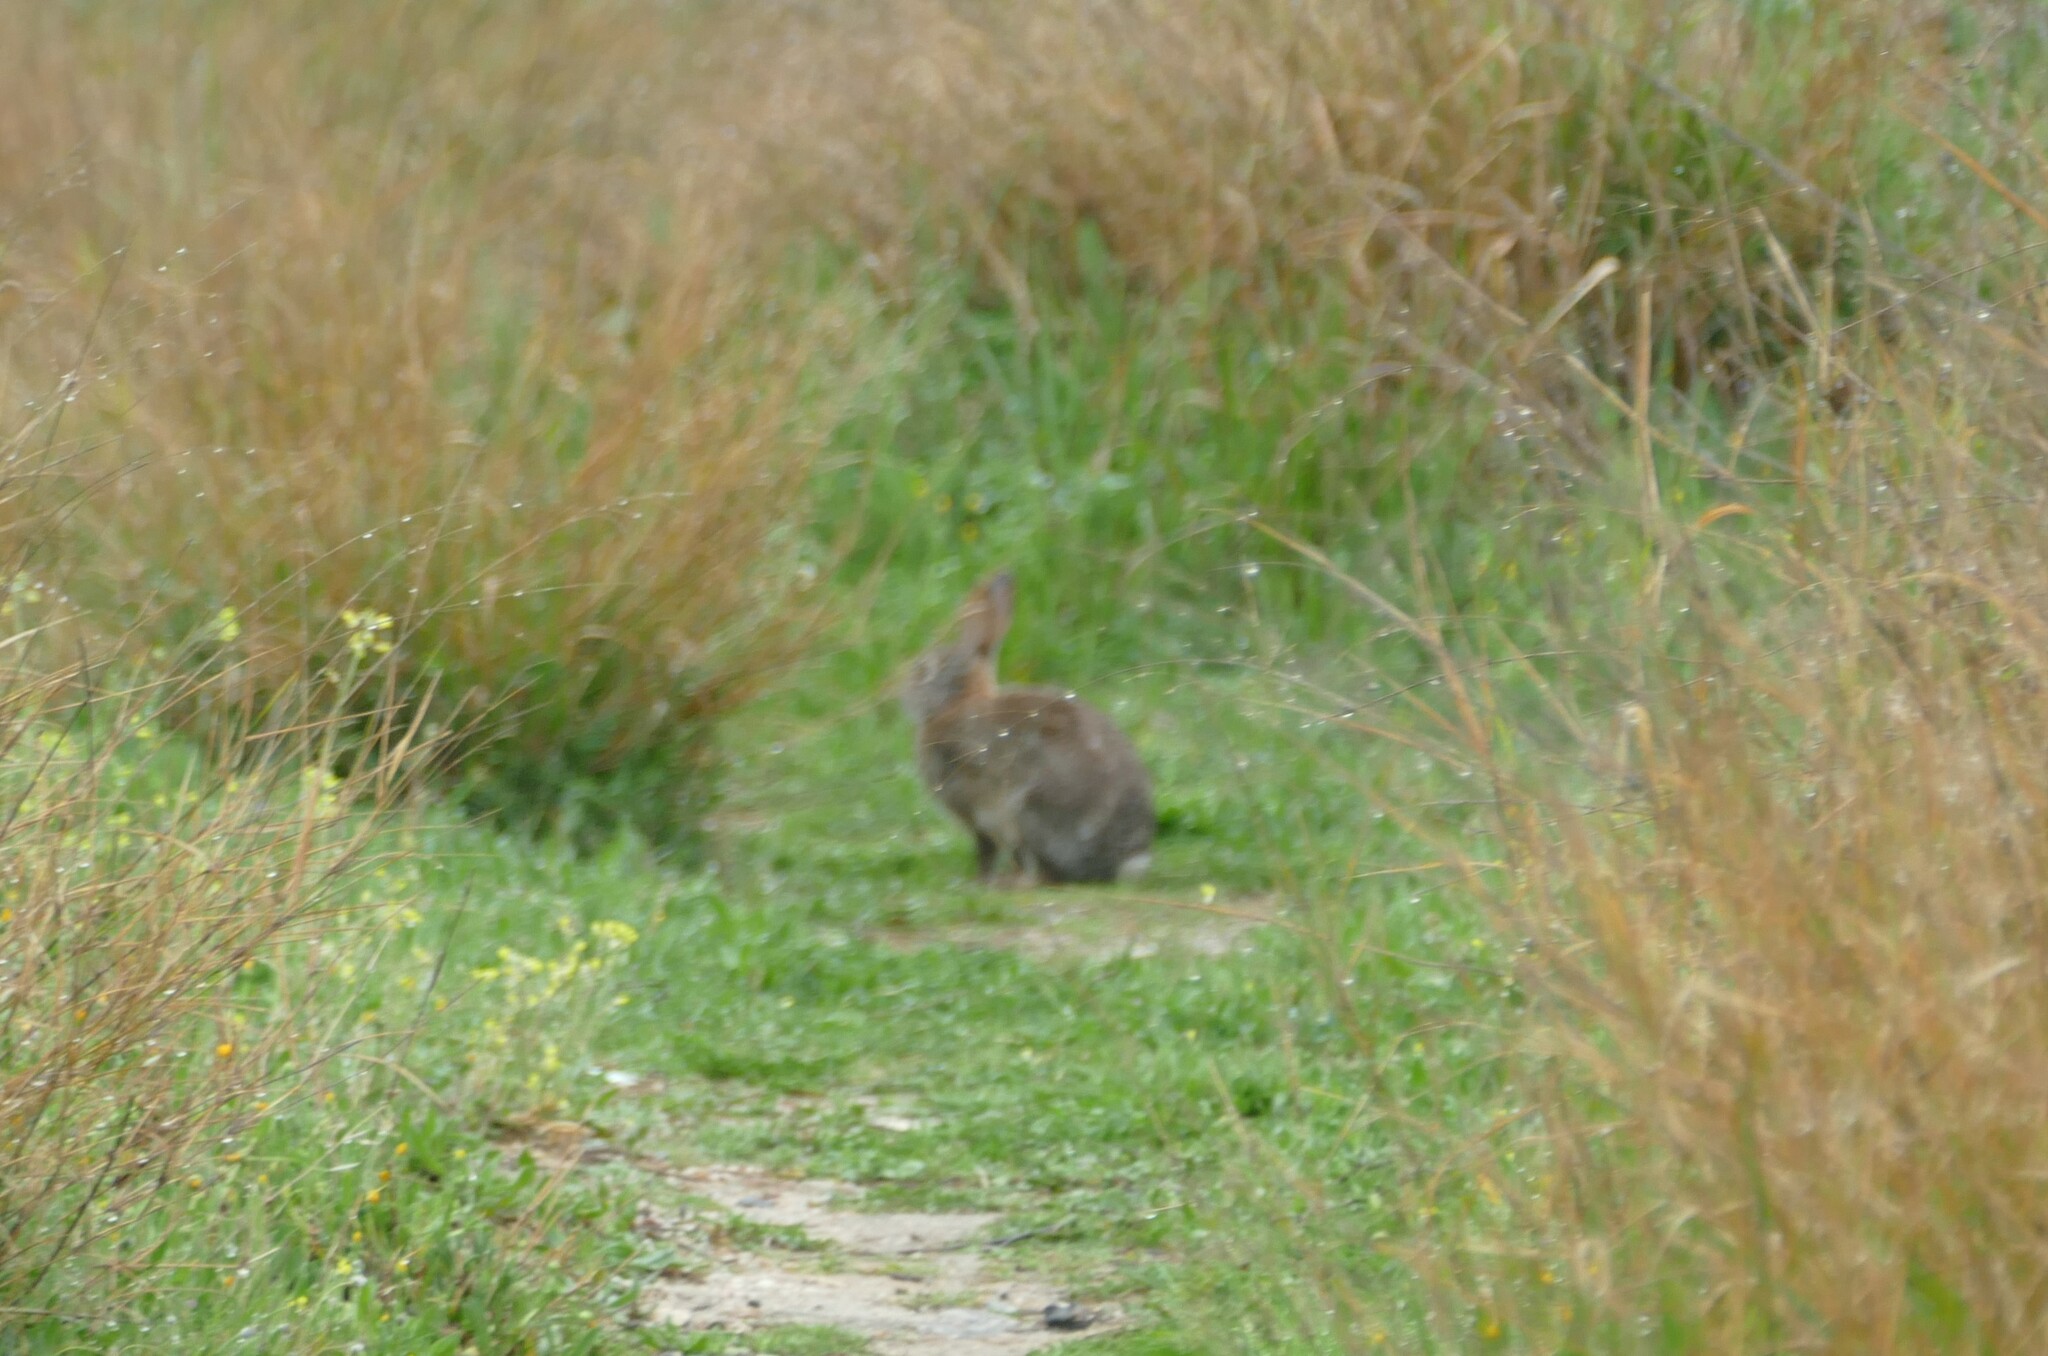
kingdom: Animalia
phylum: Chordata
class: Mammalia
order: Lagomorpha
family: Leporidae
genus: Oryctolagus
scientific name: Oryctolagus cuniculus
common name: European rabbit
